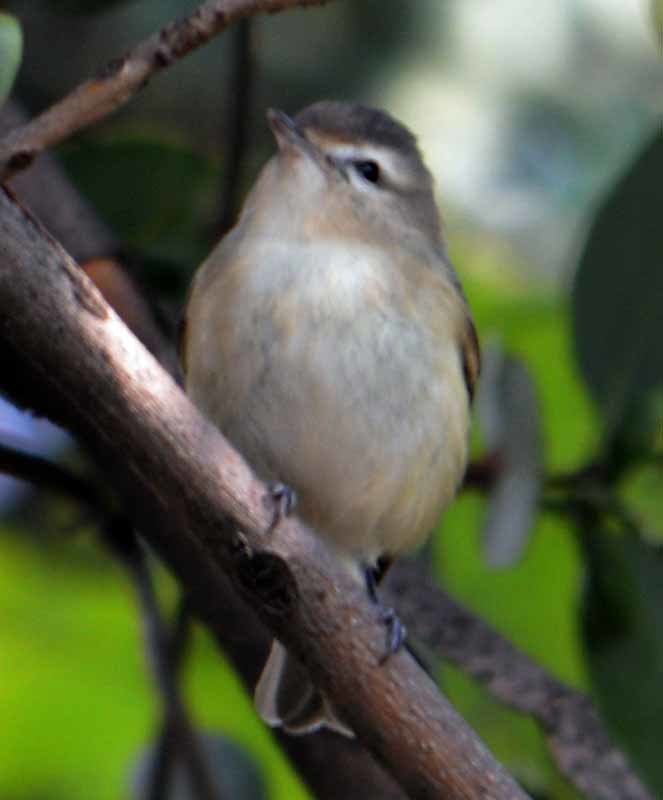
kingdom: Animalia
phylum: Chordata
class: Aves
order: Passeriformes
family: Vireonidae
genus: Vireo
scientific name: Vireo gilvus
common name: Warbling vireo
